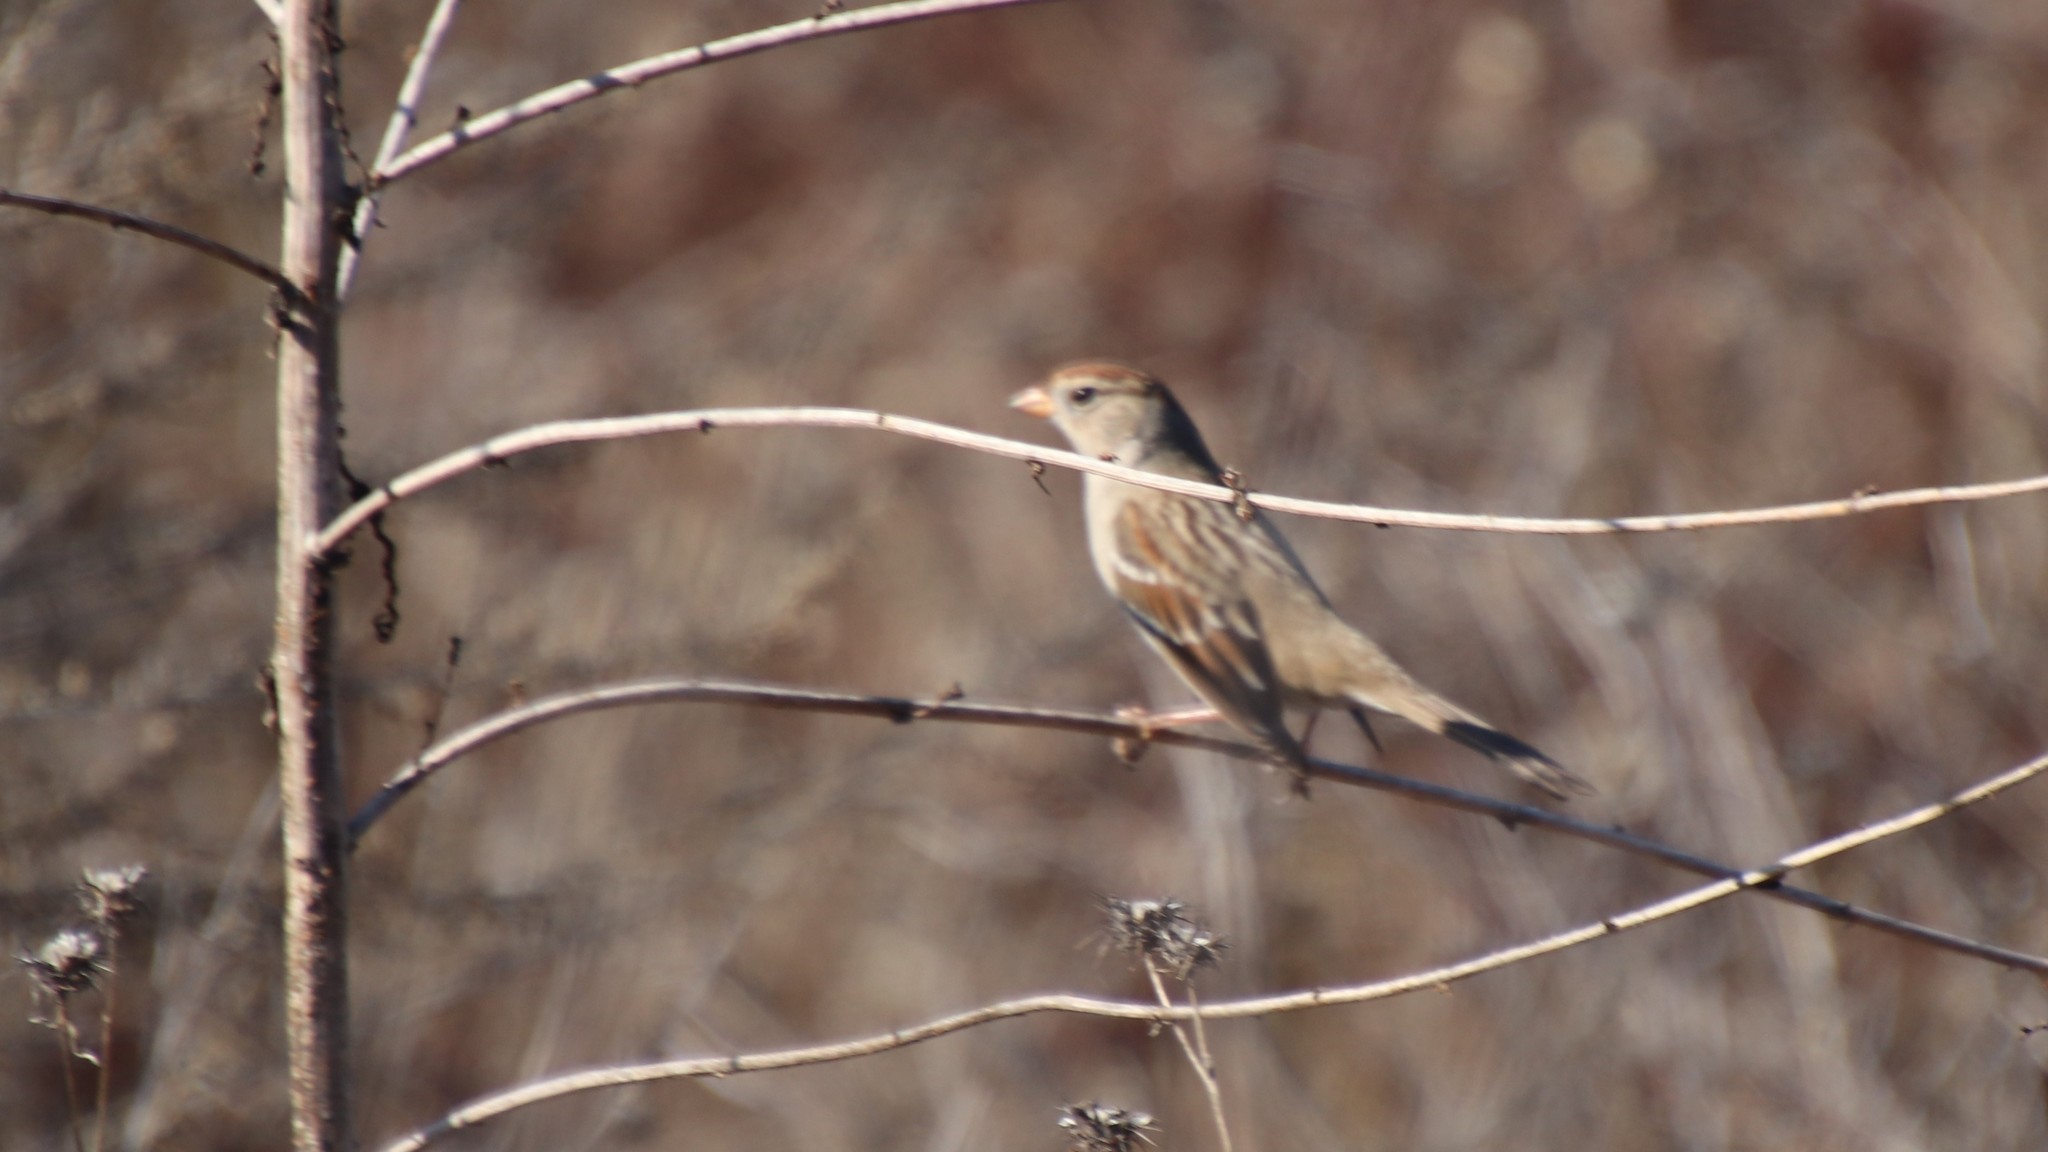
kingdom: Animalia
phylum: Chordata
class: Aves
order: Passeriformes
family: Passerellidae
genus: Zonotrichia
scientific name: Zonotrichia leucophrys
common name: White-crowned sparrow
